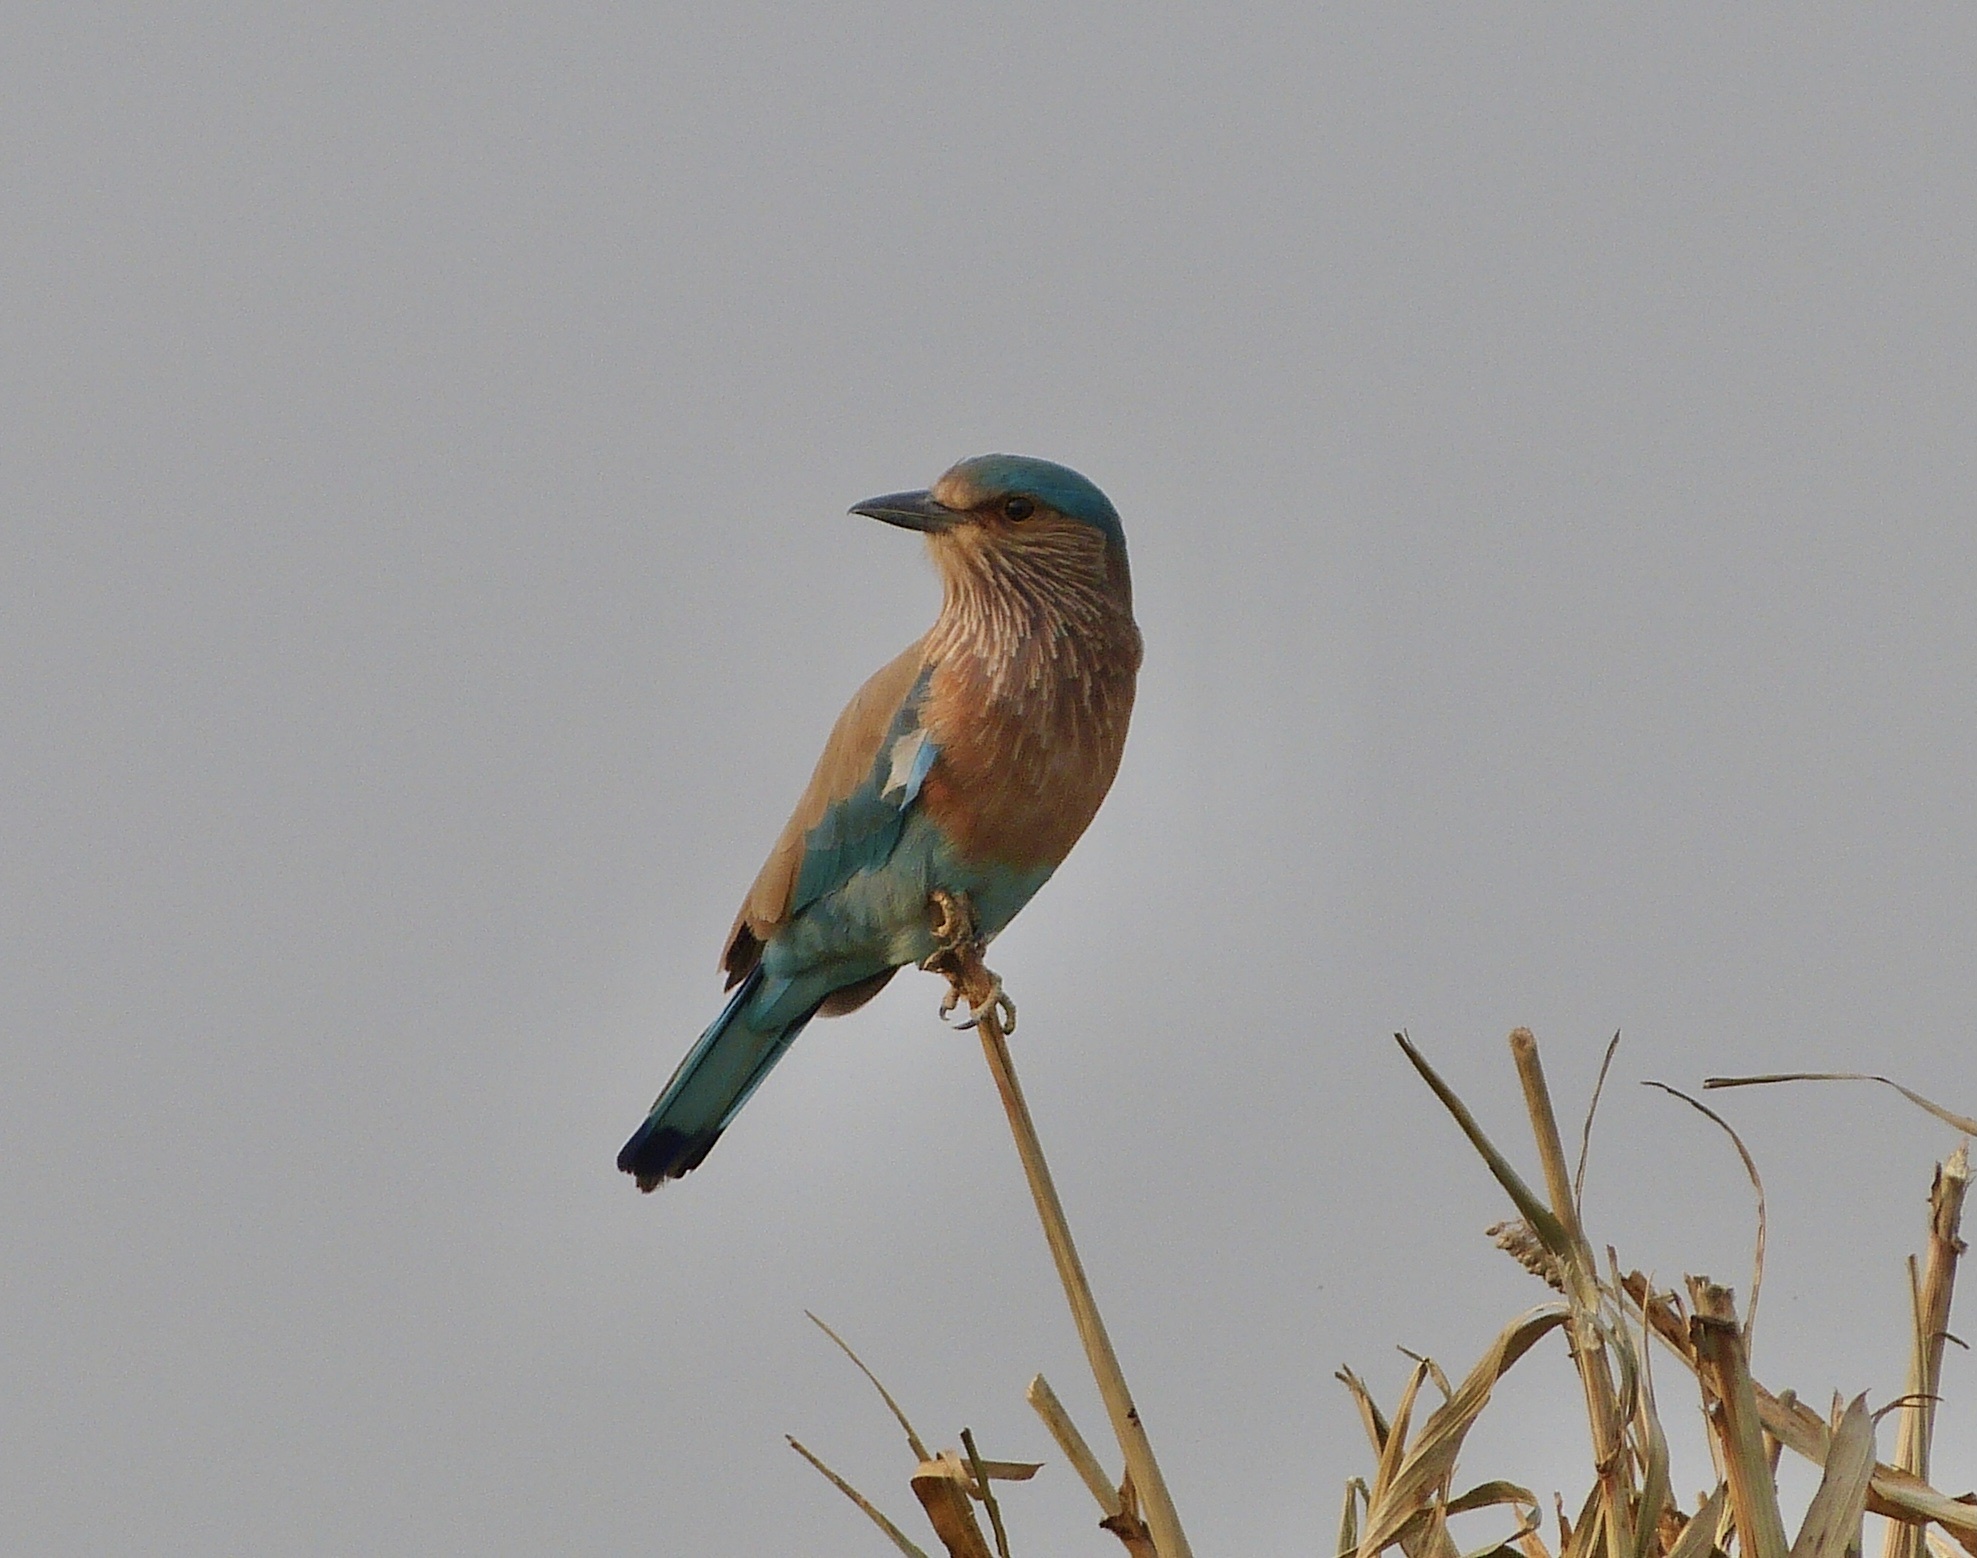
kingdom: Animalia
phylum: Chordata
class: Aves
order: Coraciiformes
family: Coraciidae
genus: Coracias
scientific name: Coracias benghalensis
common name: Indian roller
